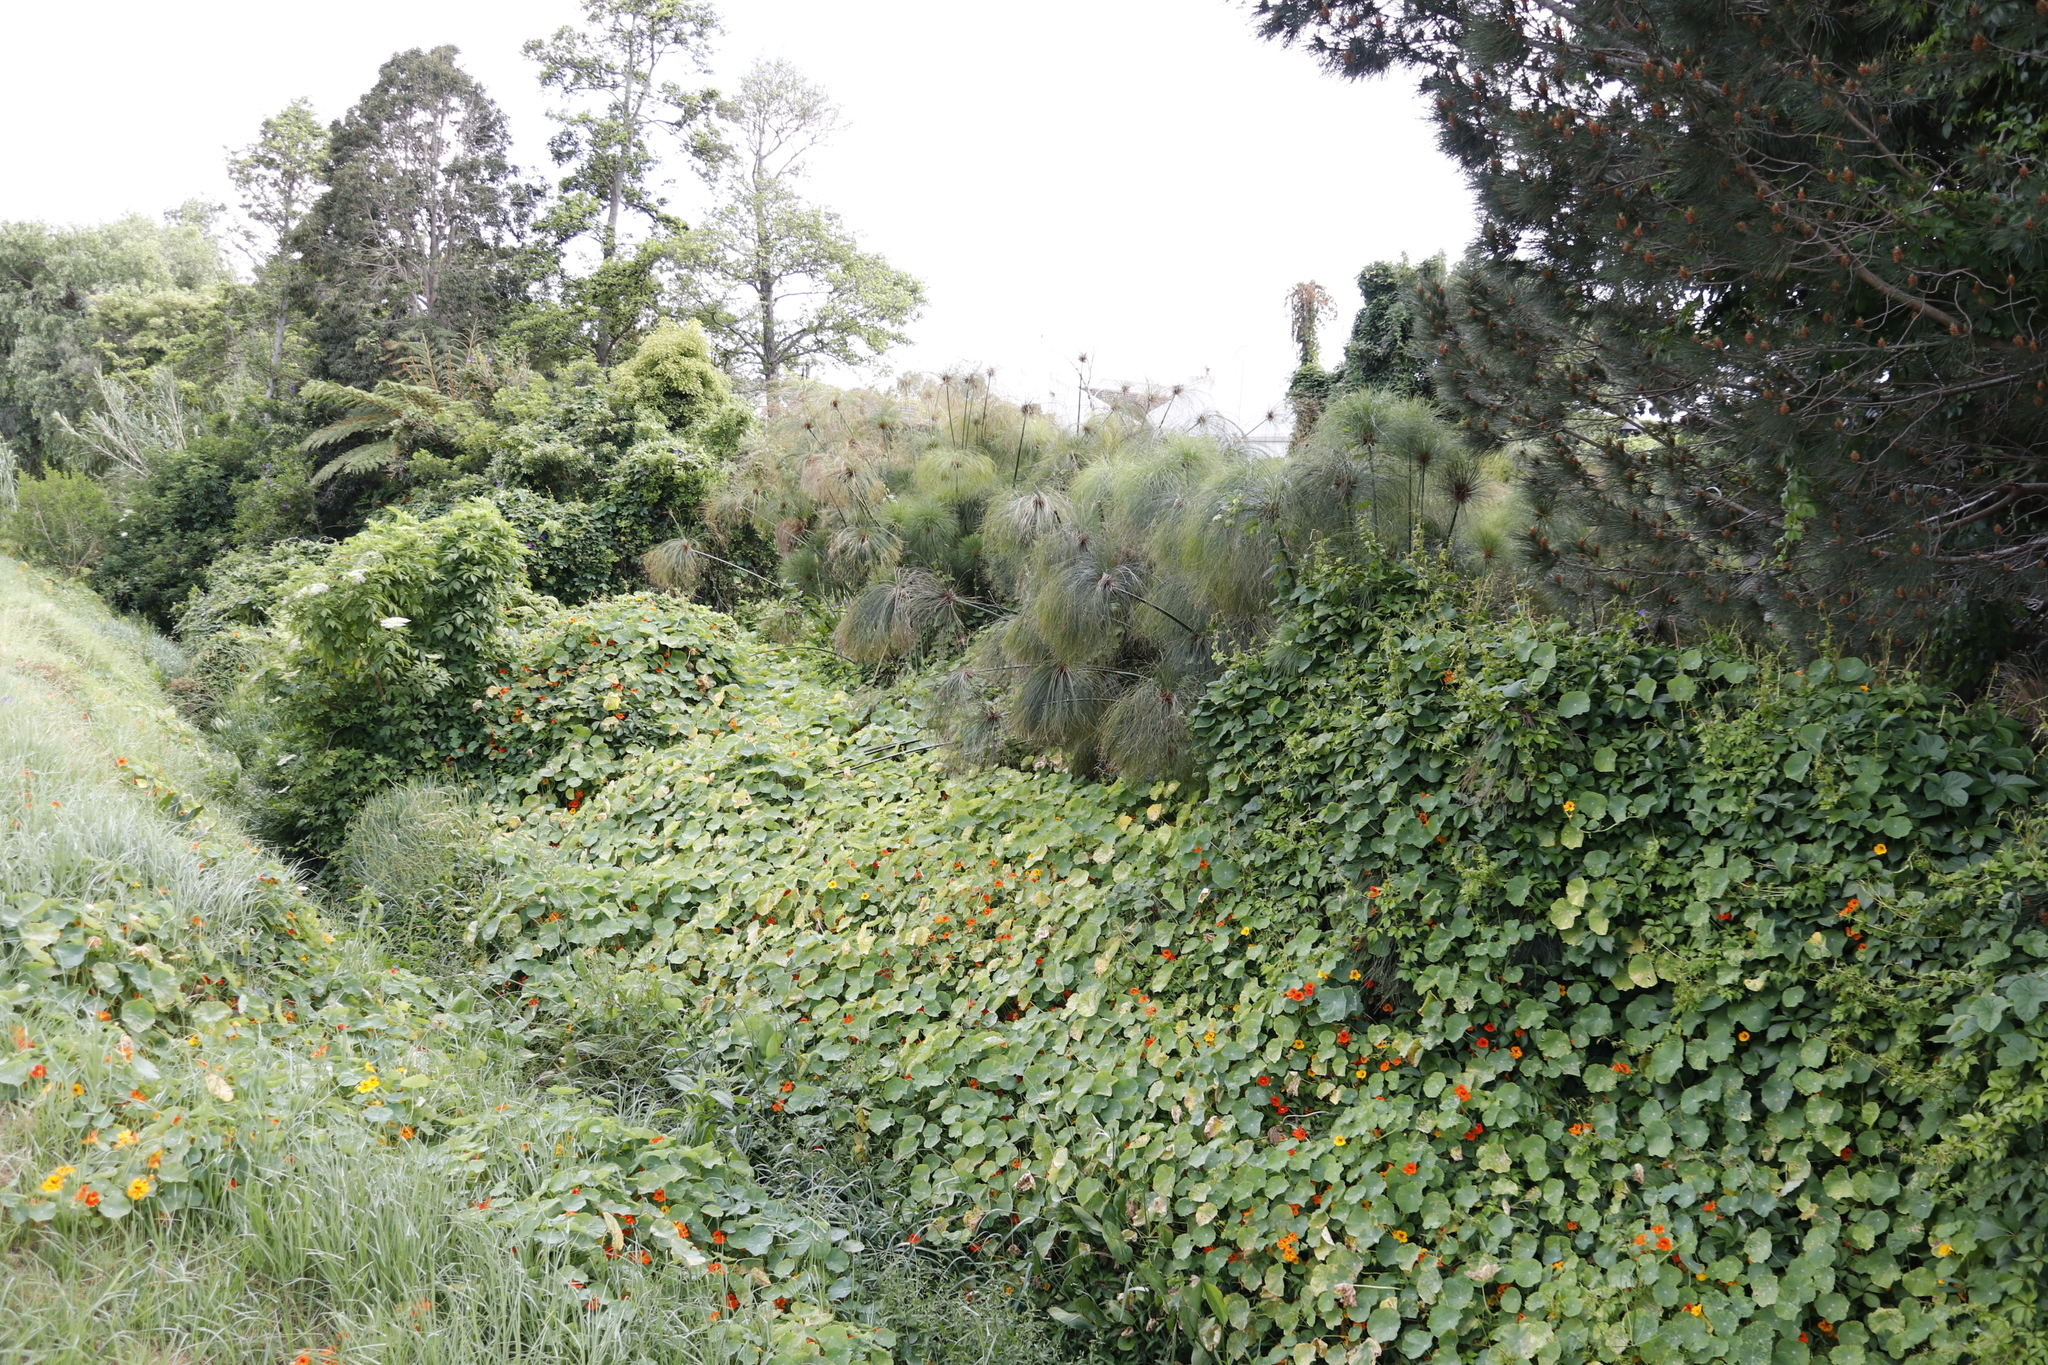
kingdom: Plantae
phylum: Tracheophyta
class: Liliopsida
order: Poales
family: Cyperaceae
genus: Cyperus
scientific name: Cyperus papyrus
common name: Papyrus
